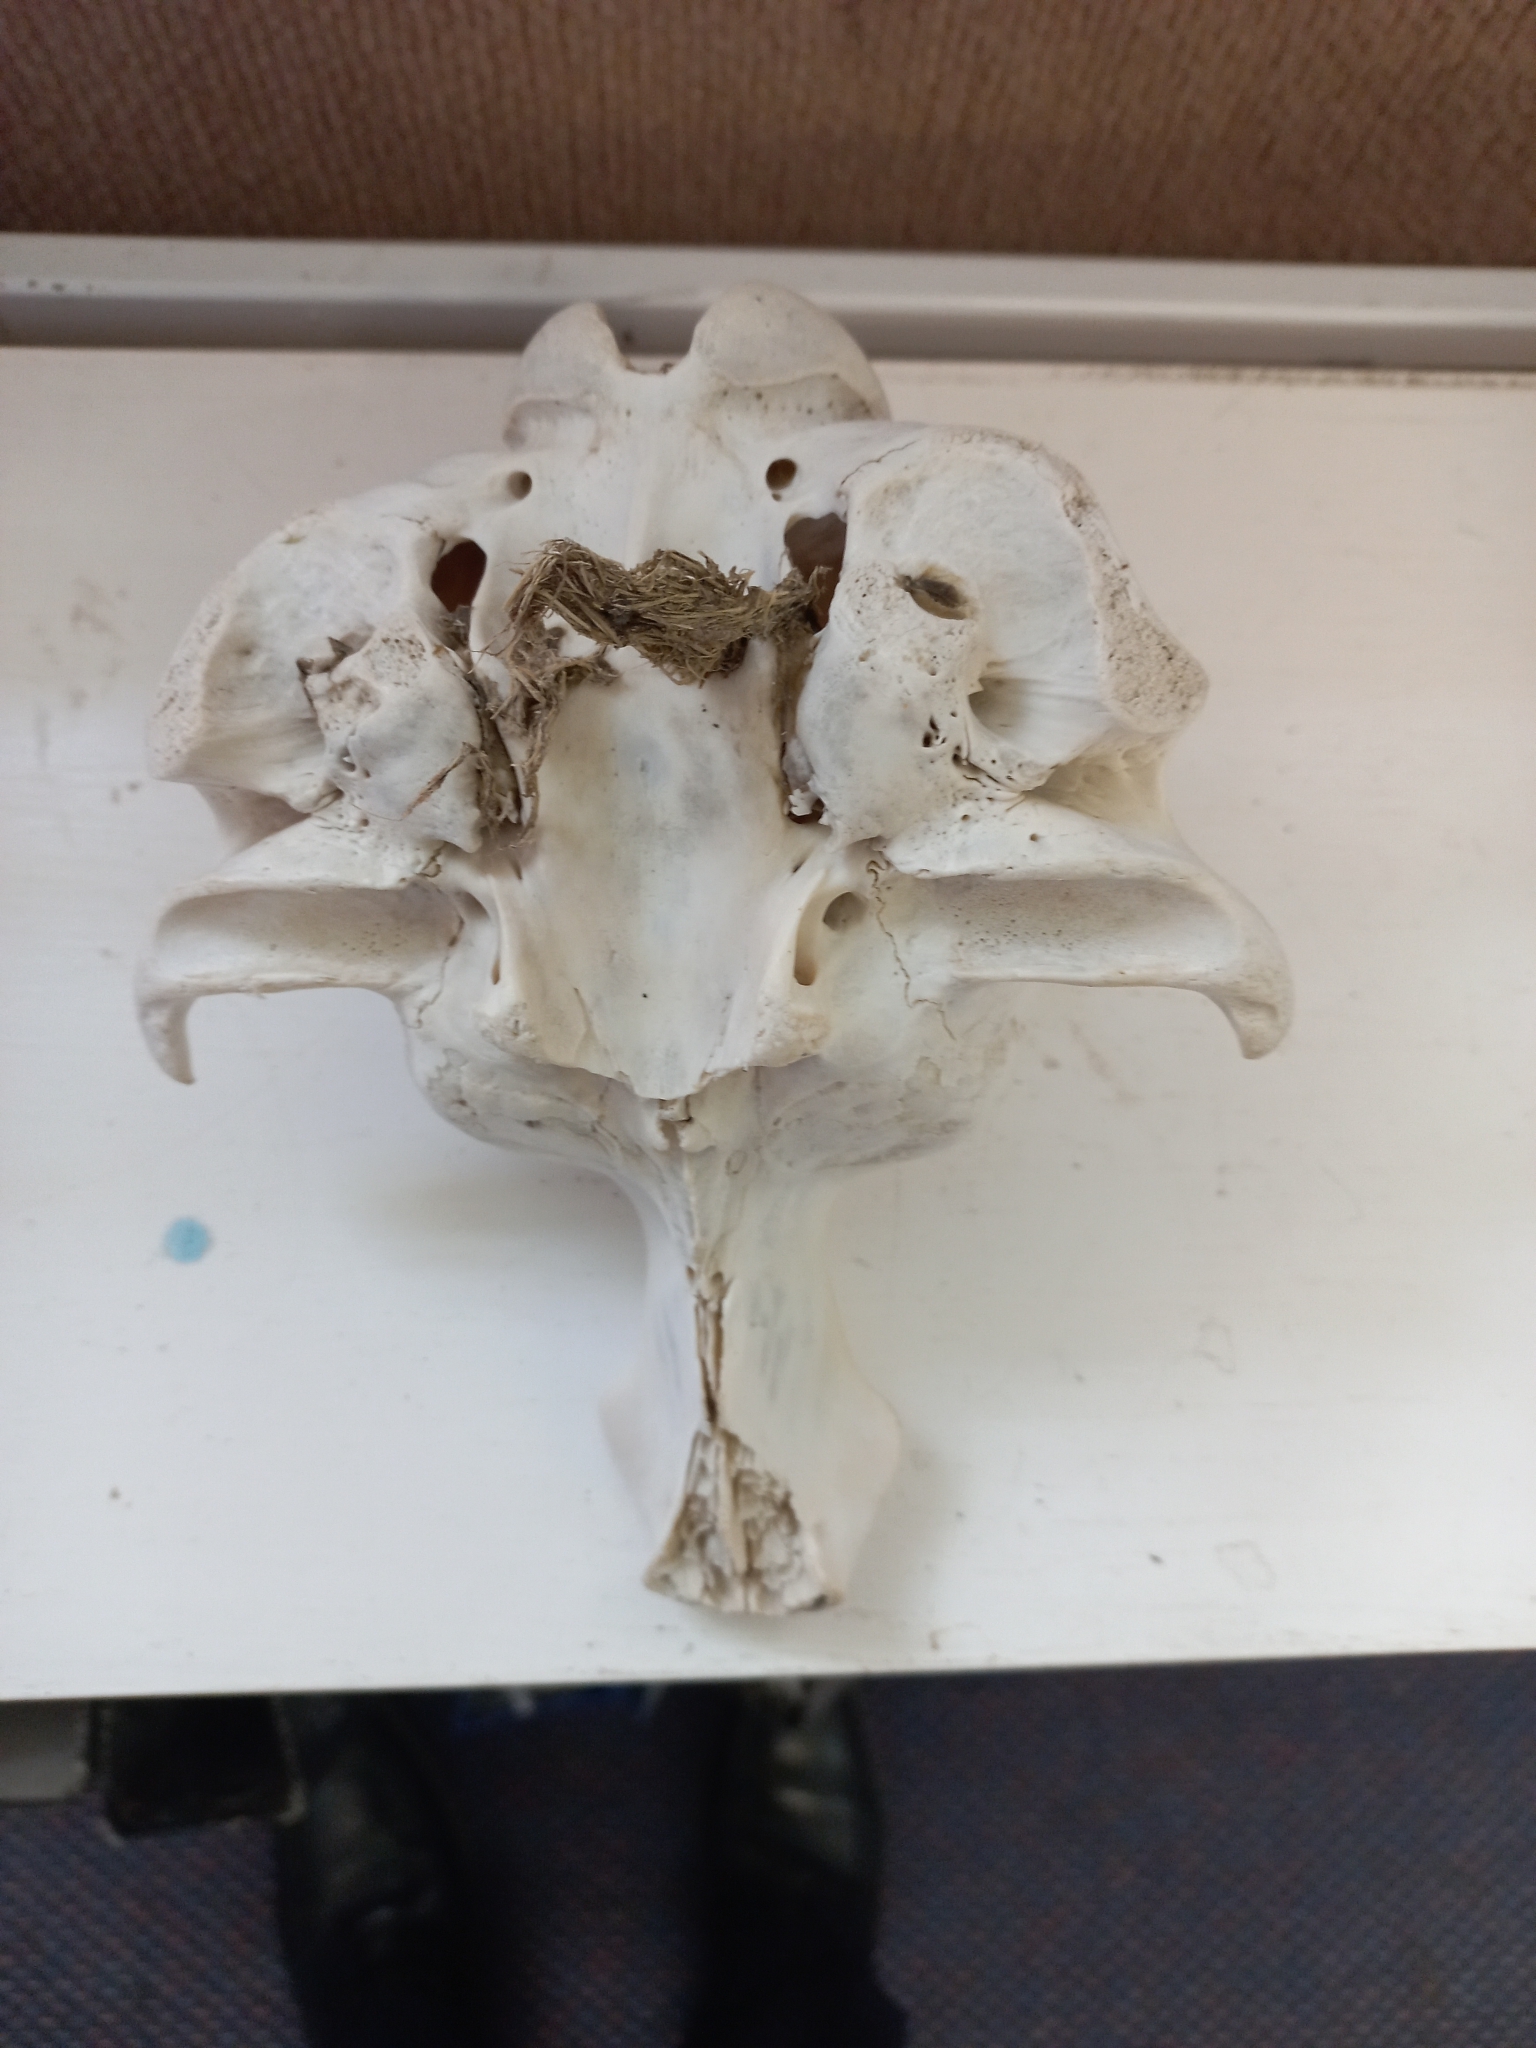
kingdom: Animalia
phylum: Chordata
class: Mammalia
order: Carnivora
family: Otariidae
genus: Arctocephalus
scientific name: Arctocephalus forsteri
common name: New zealand fur seal
